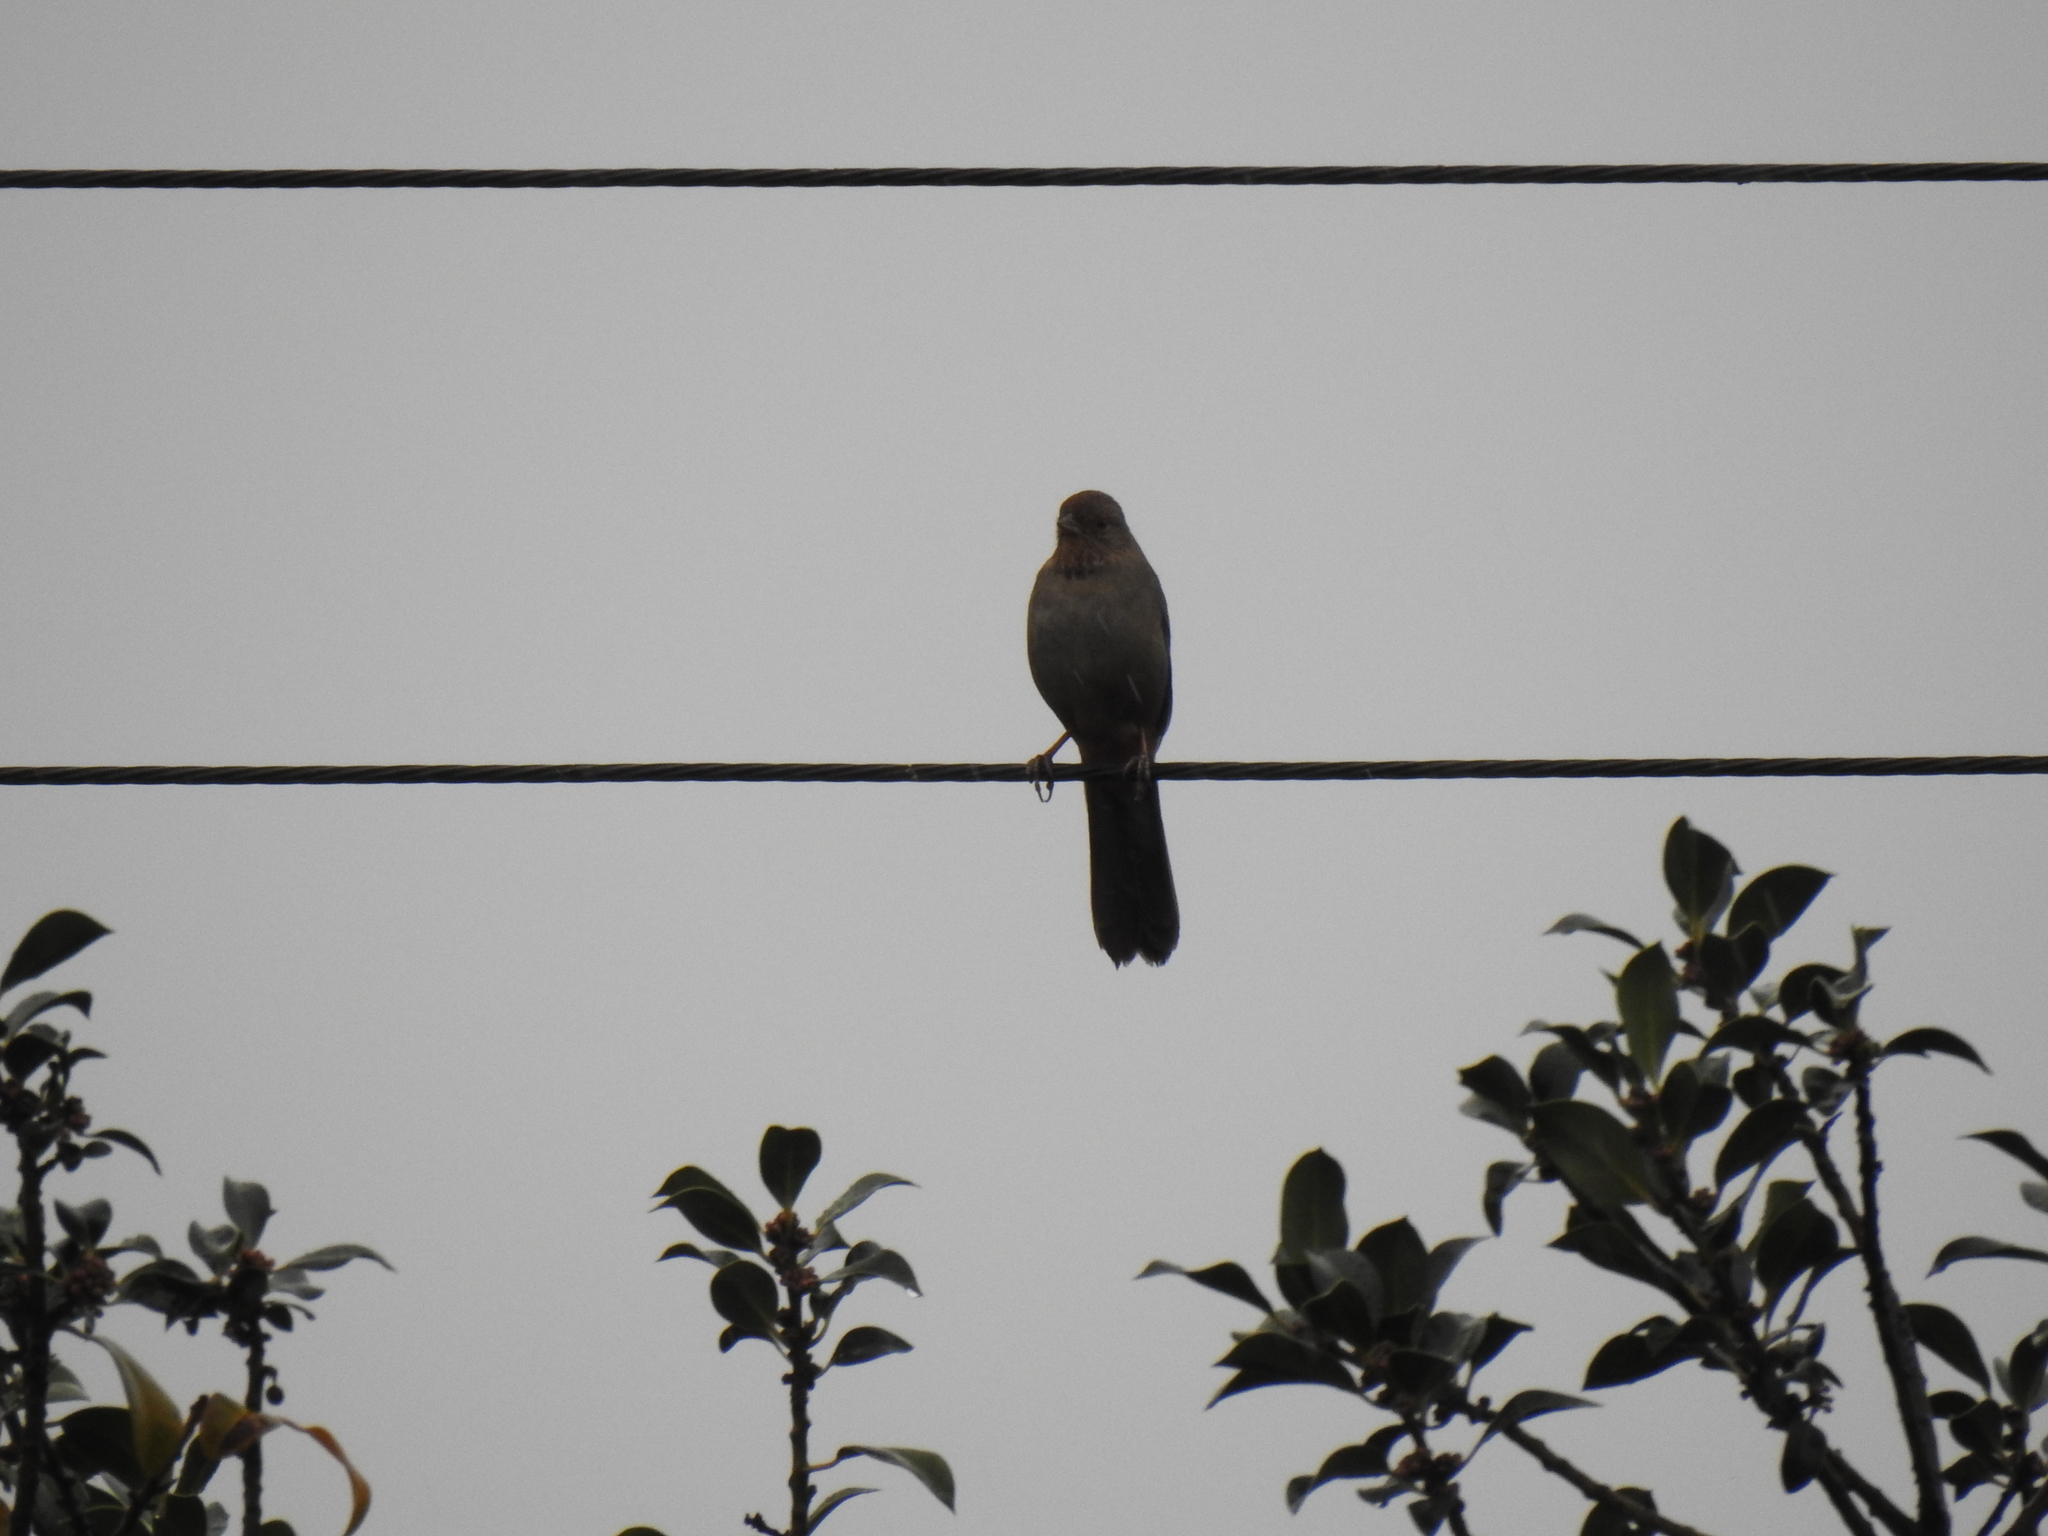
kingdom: Animalia
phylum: Chordata
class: Aves
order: Passeriformes
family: Passerellidae
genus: Melozone
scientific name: Melozone crissalis
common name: California towhee
